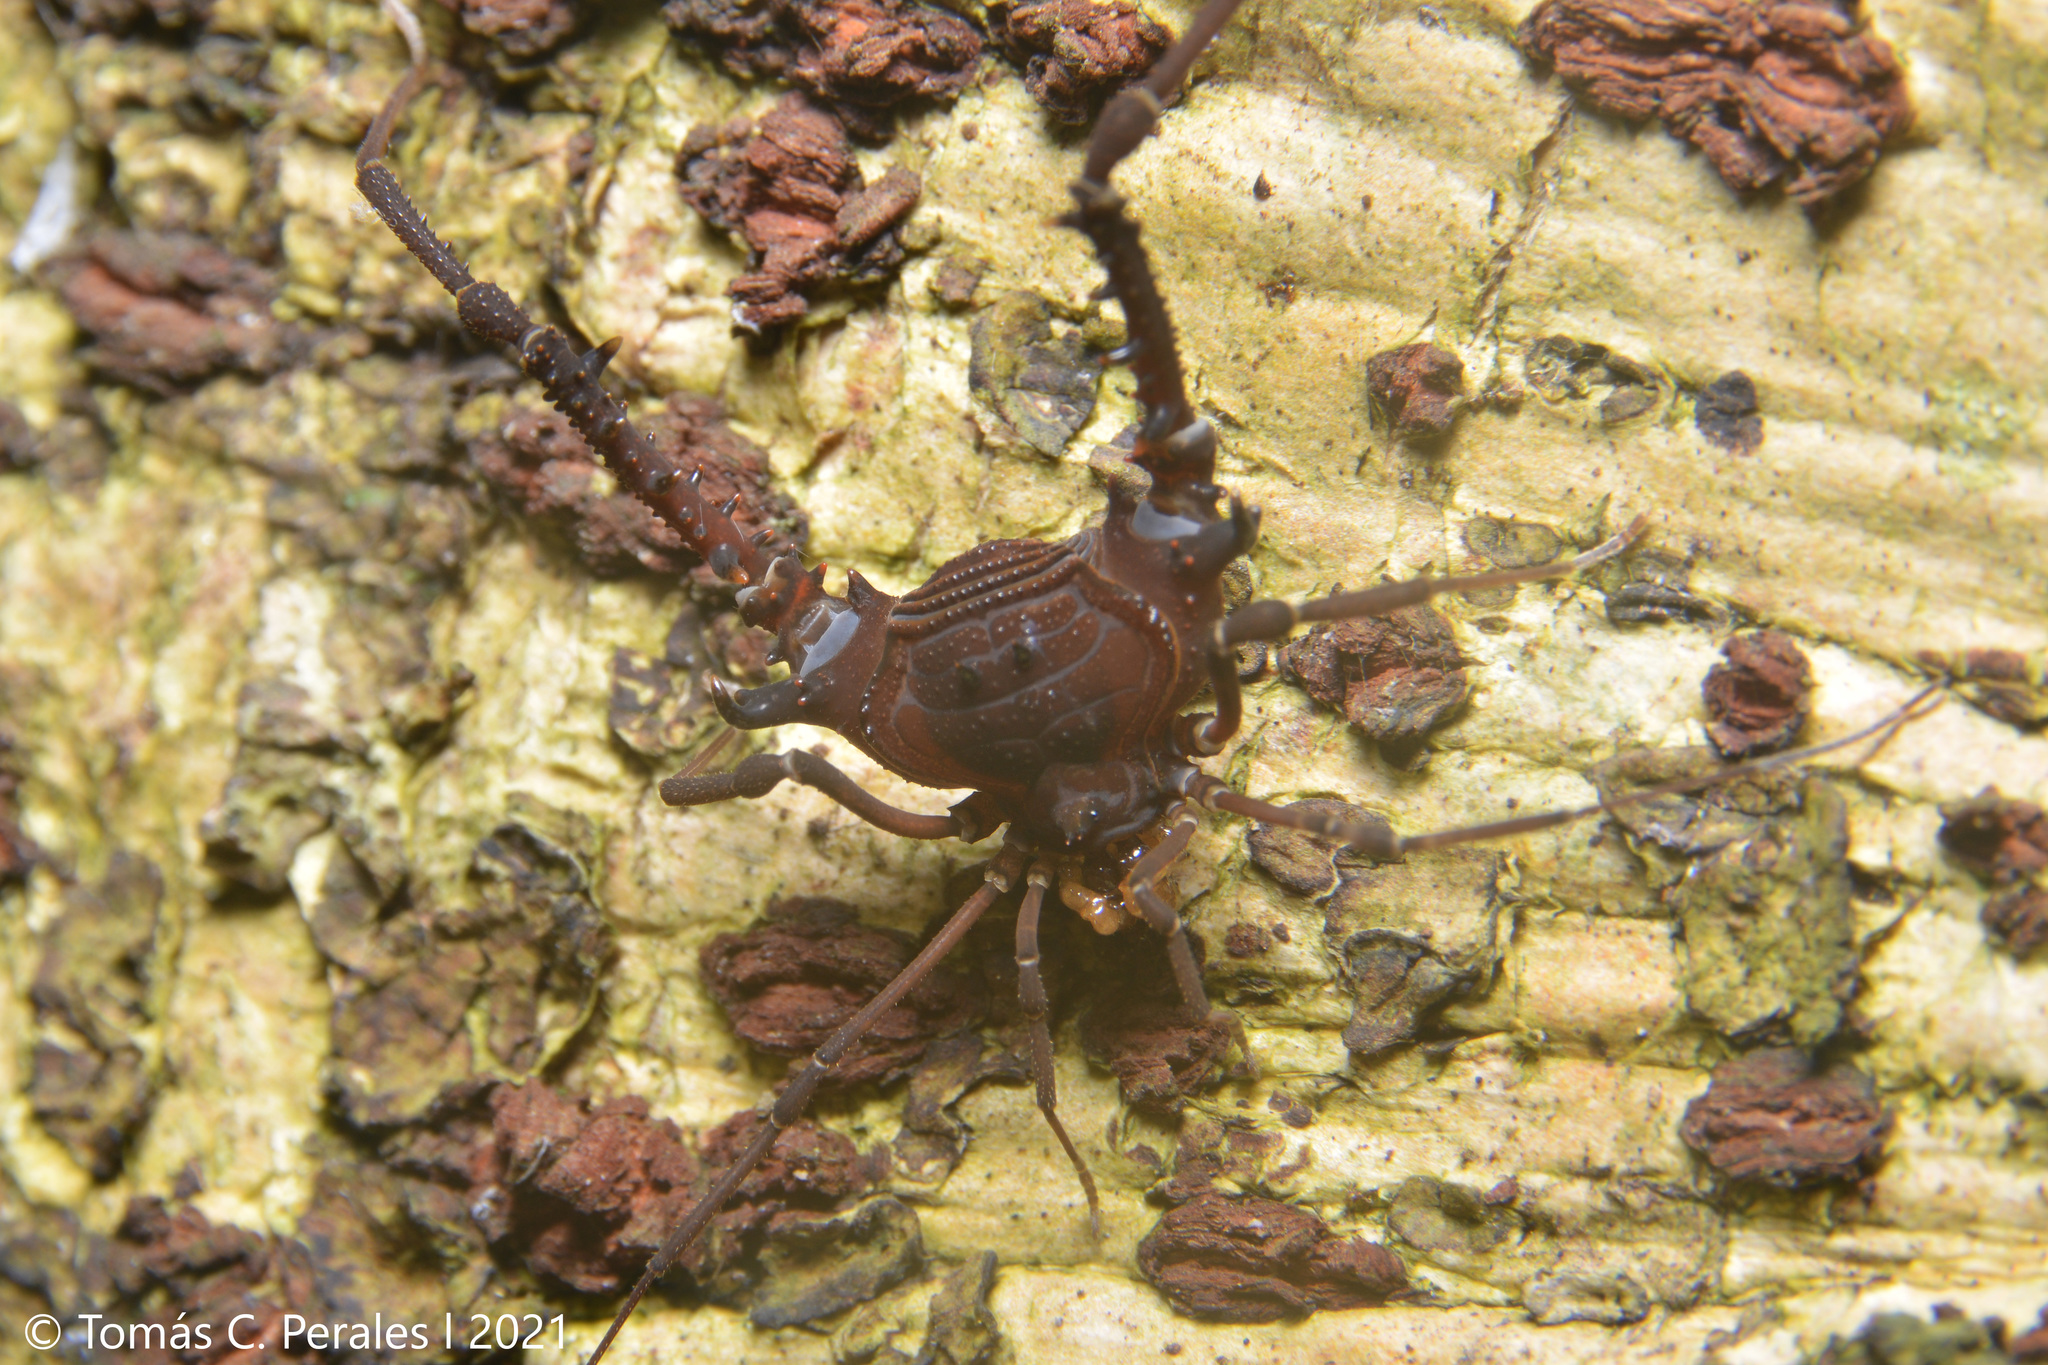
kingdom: Animalia
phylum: Arthropoda
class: Arachnida
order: Opiliones
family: Gonyleptidae
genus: Opisthoplatus
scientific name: Opisthoplatus vegetus
